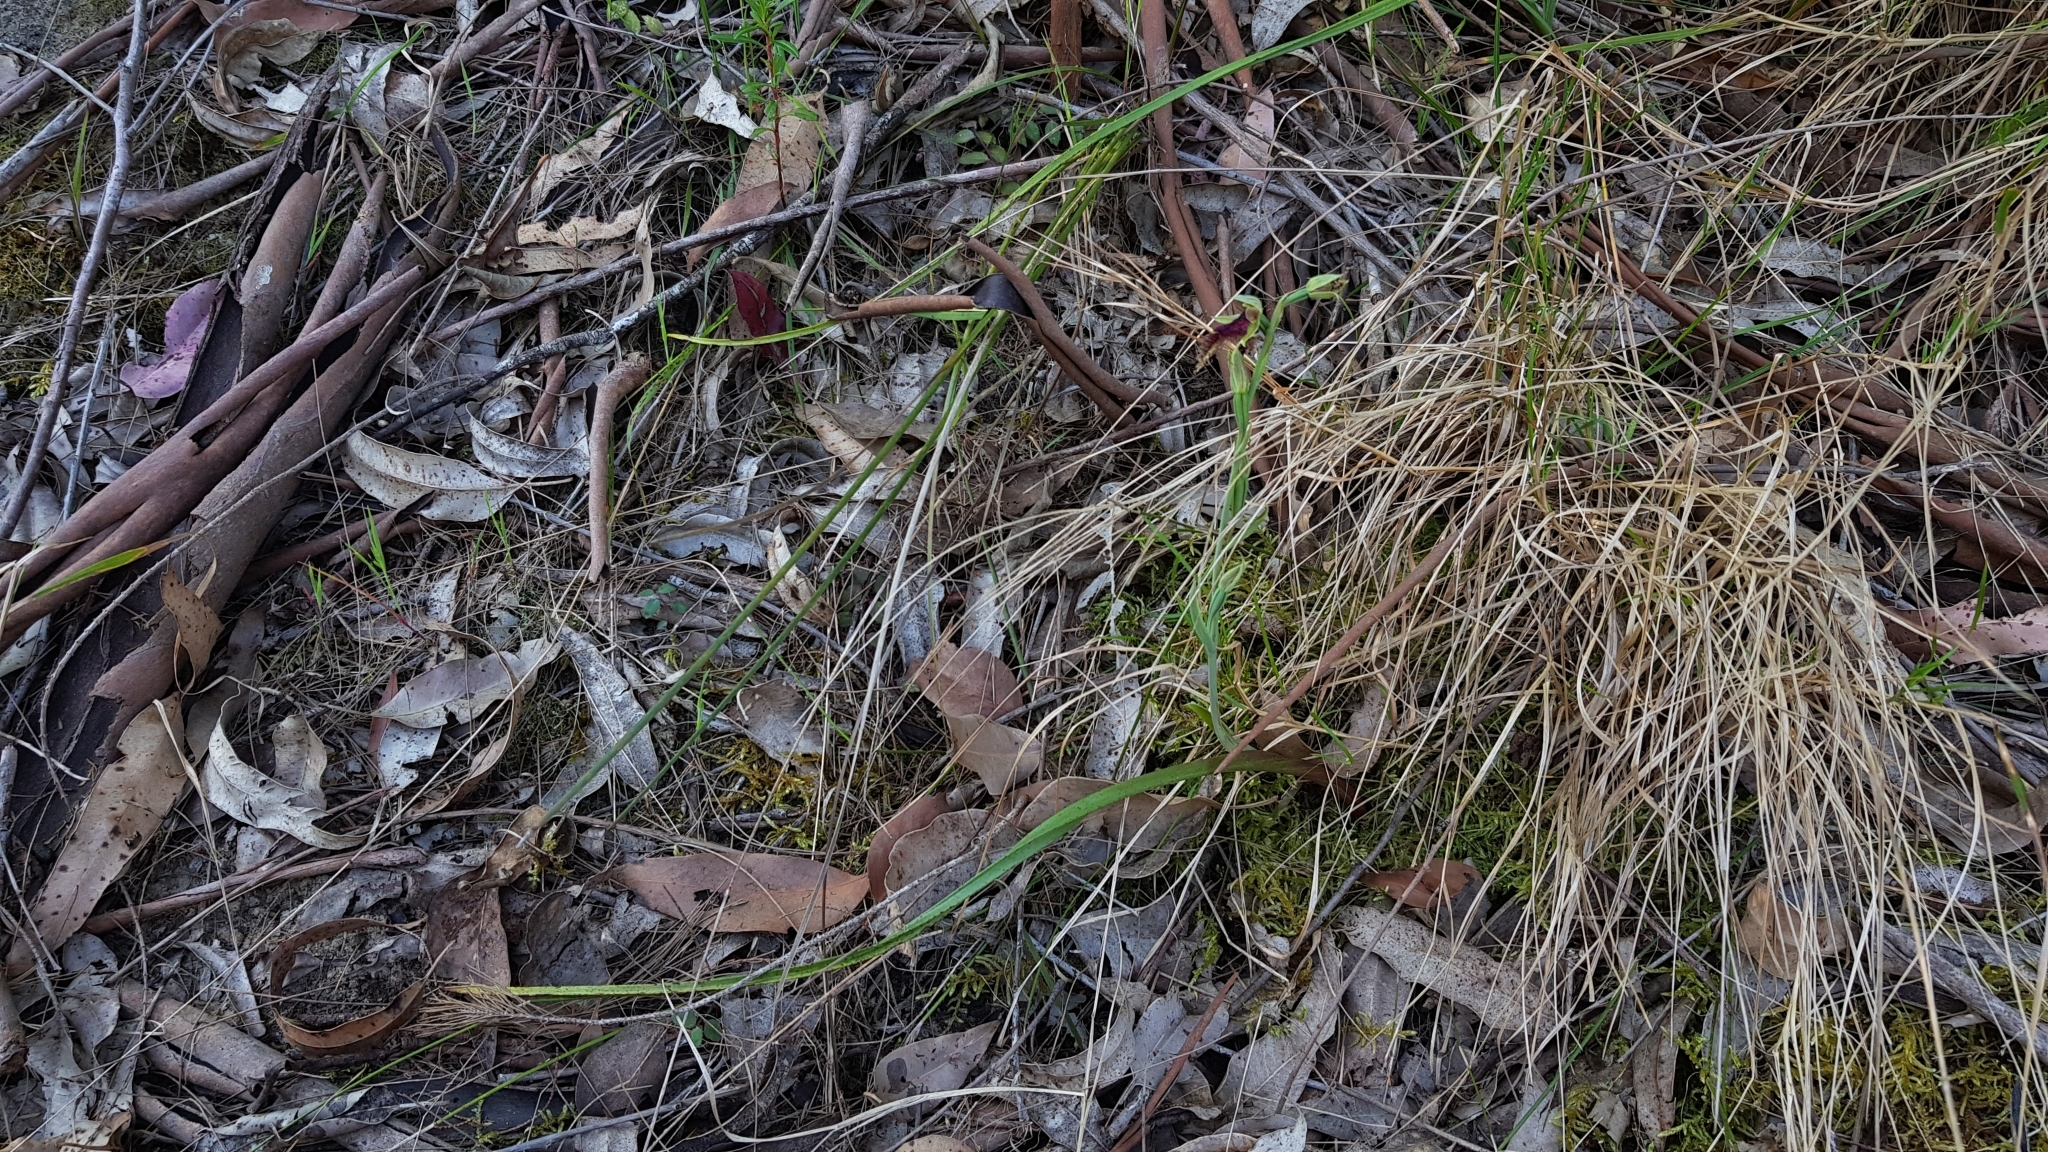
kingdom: Plantae
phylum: Tracheophyta
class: Liliopsida
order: Asparagales
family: Orchidaceae
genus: Calochilus
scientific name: Calochilus robertsonii
